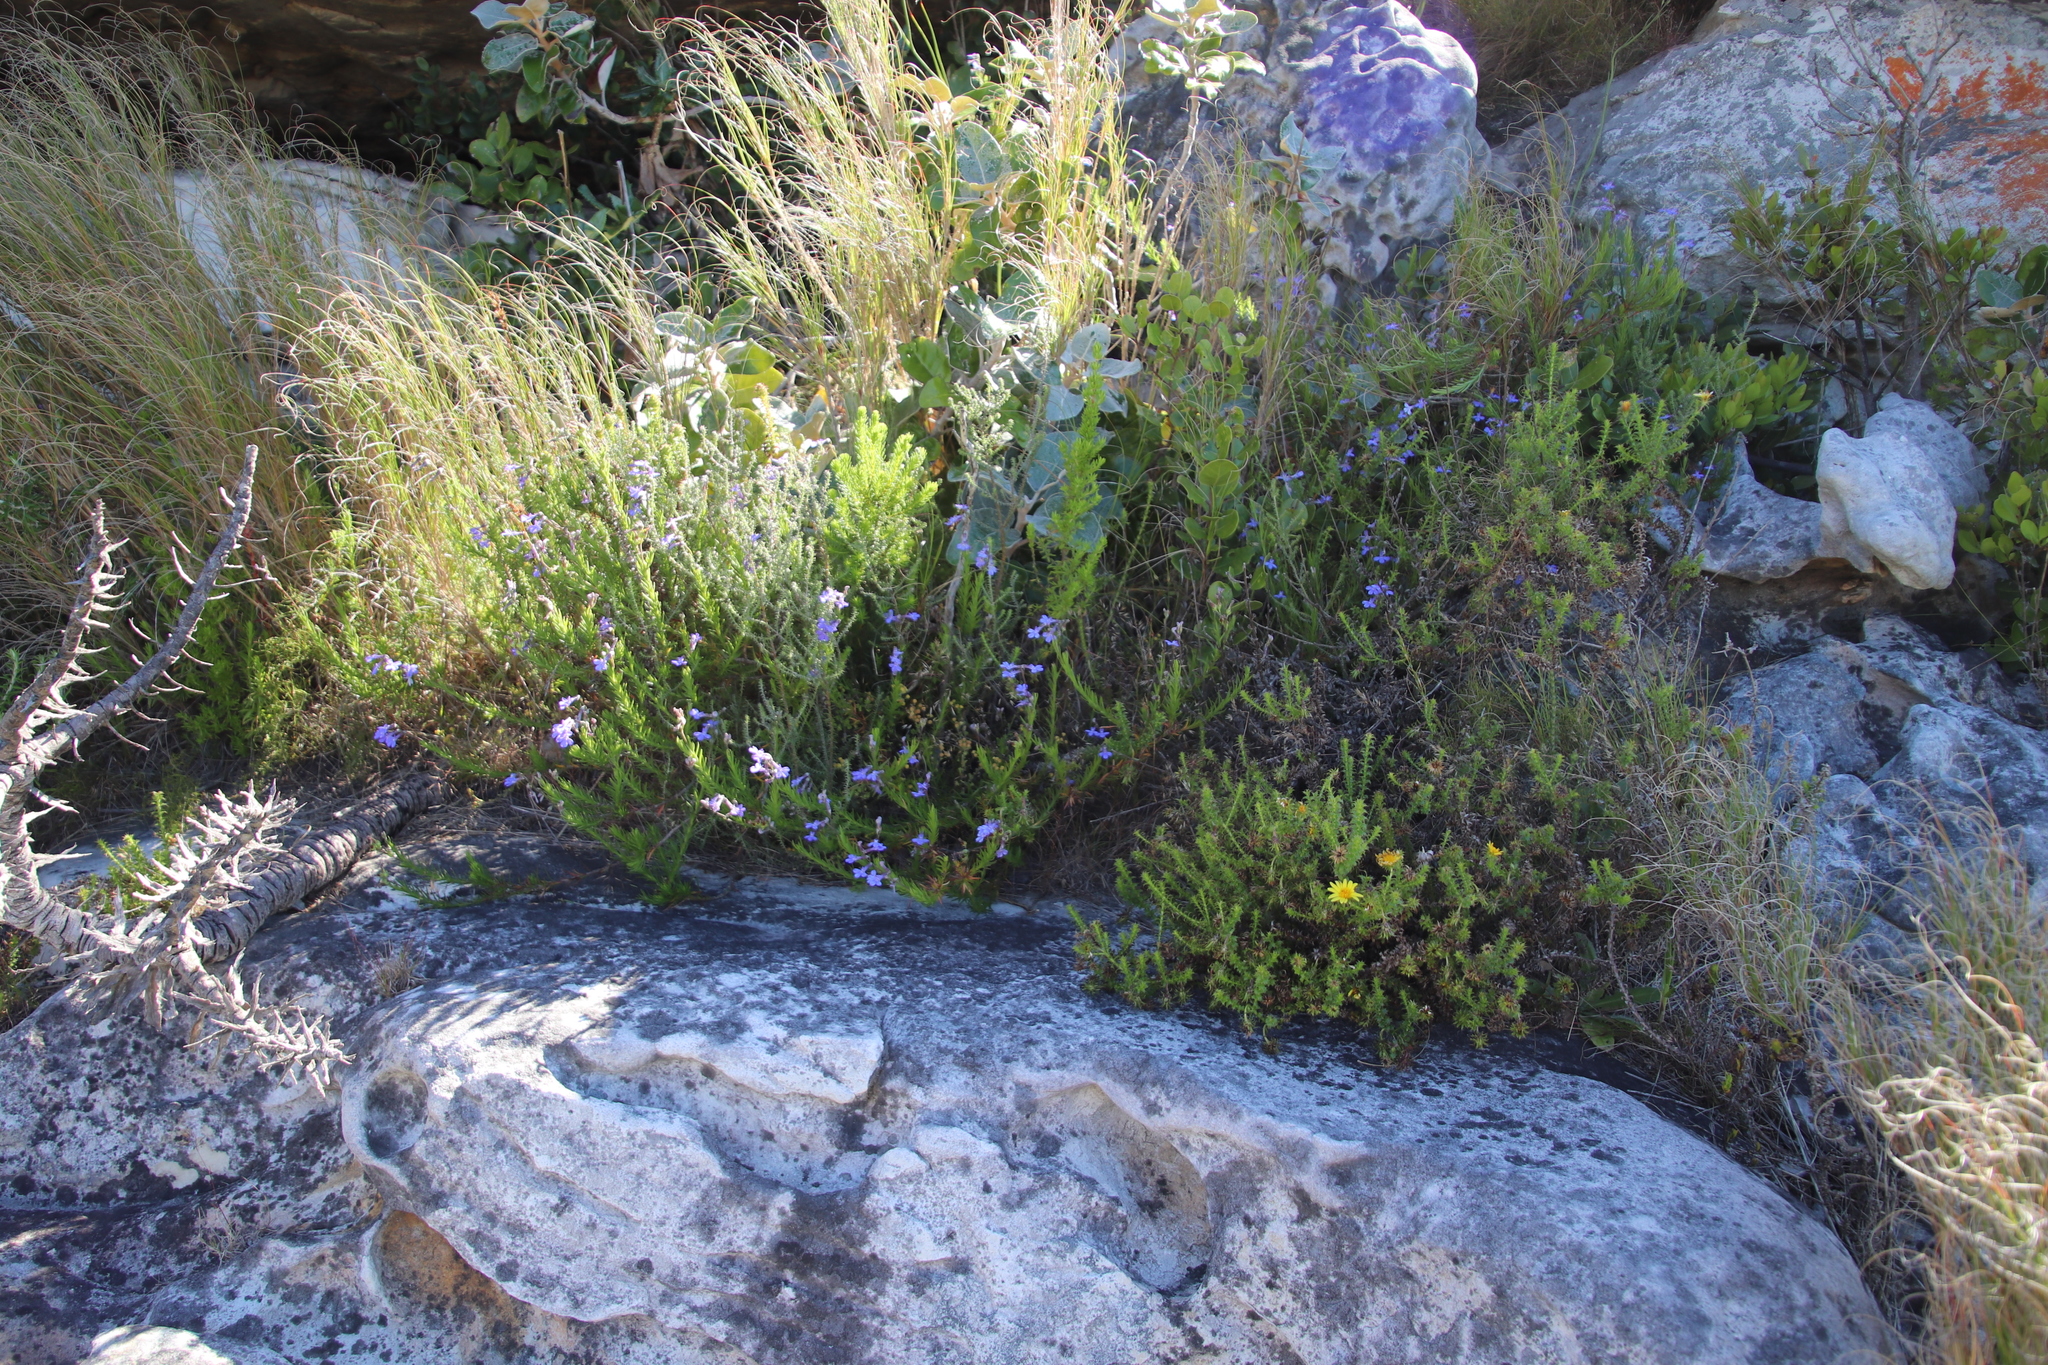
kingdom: Plantae
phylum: Tracheophyta
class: Magnoliopsida
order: Asterales
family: Campanulaceae
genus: Lobelia
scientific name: Lobelia pinifolia
